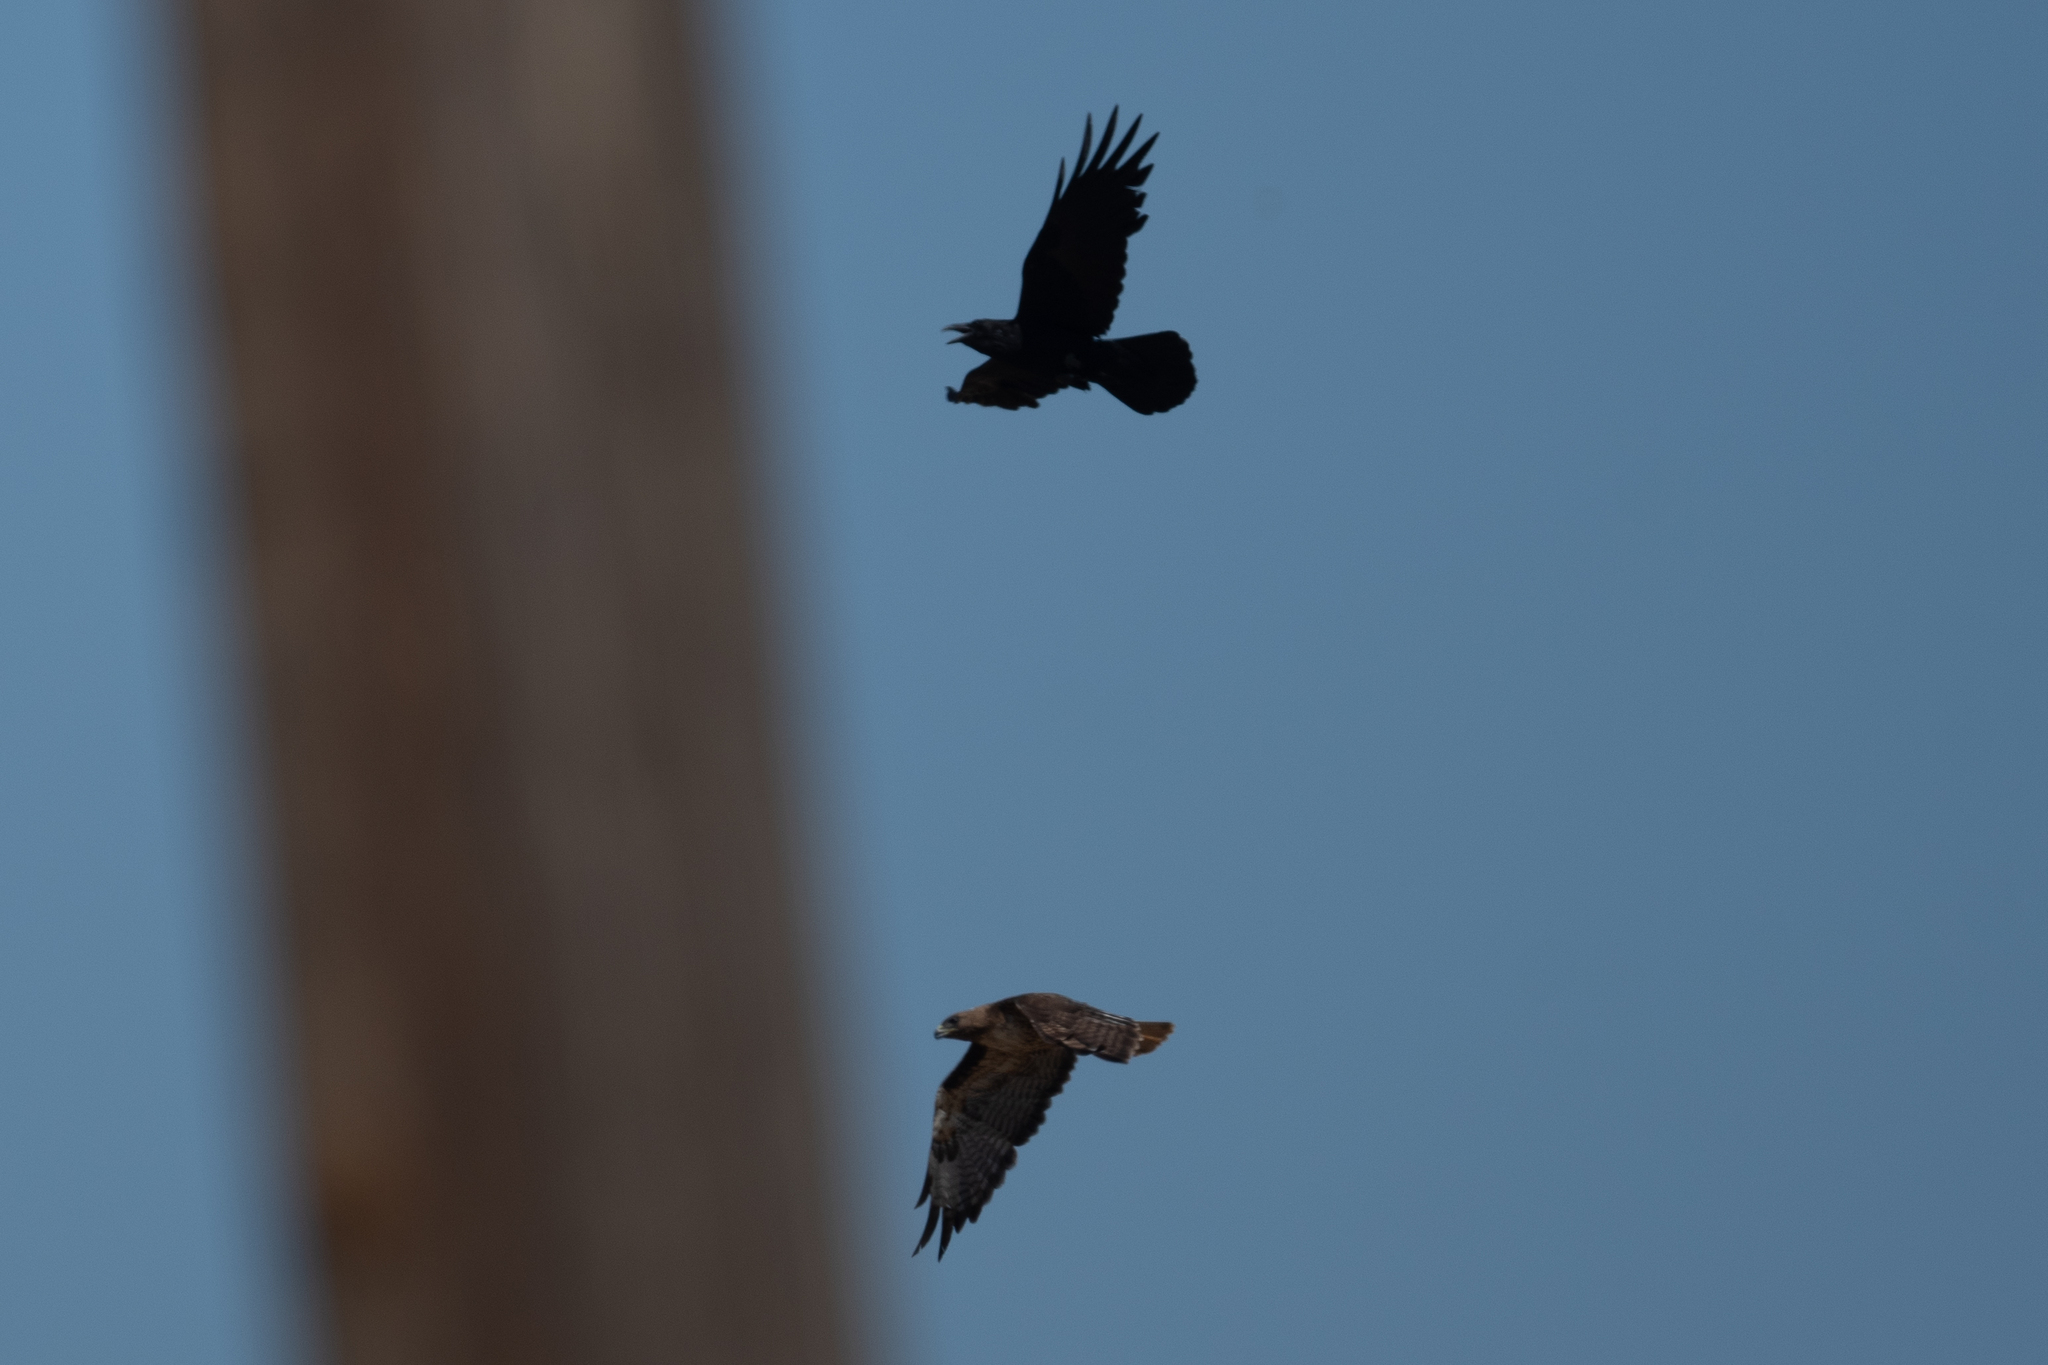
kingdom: Animalia
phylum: Chordata
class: Aves
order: Passeriformes
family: Corvidae
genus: Corvus
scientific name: Corvus corax
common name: Common raven
